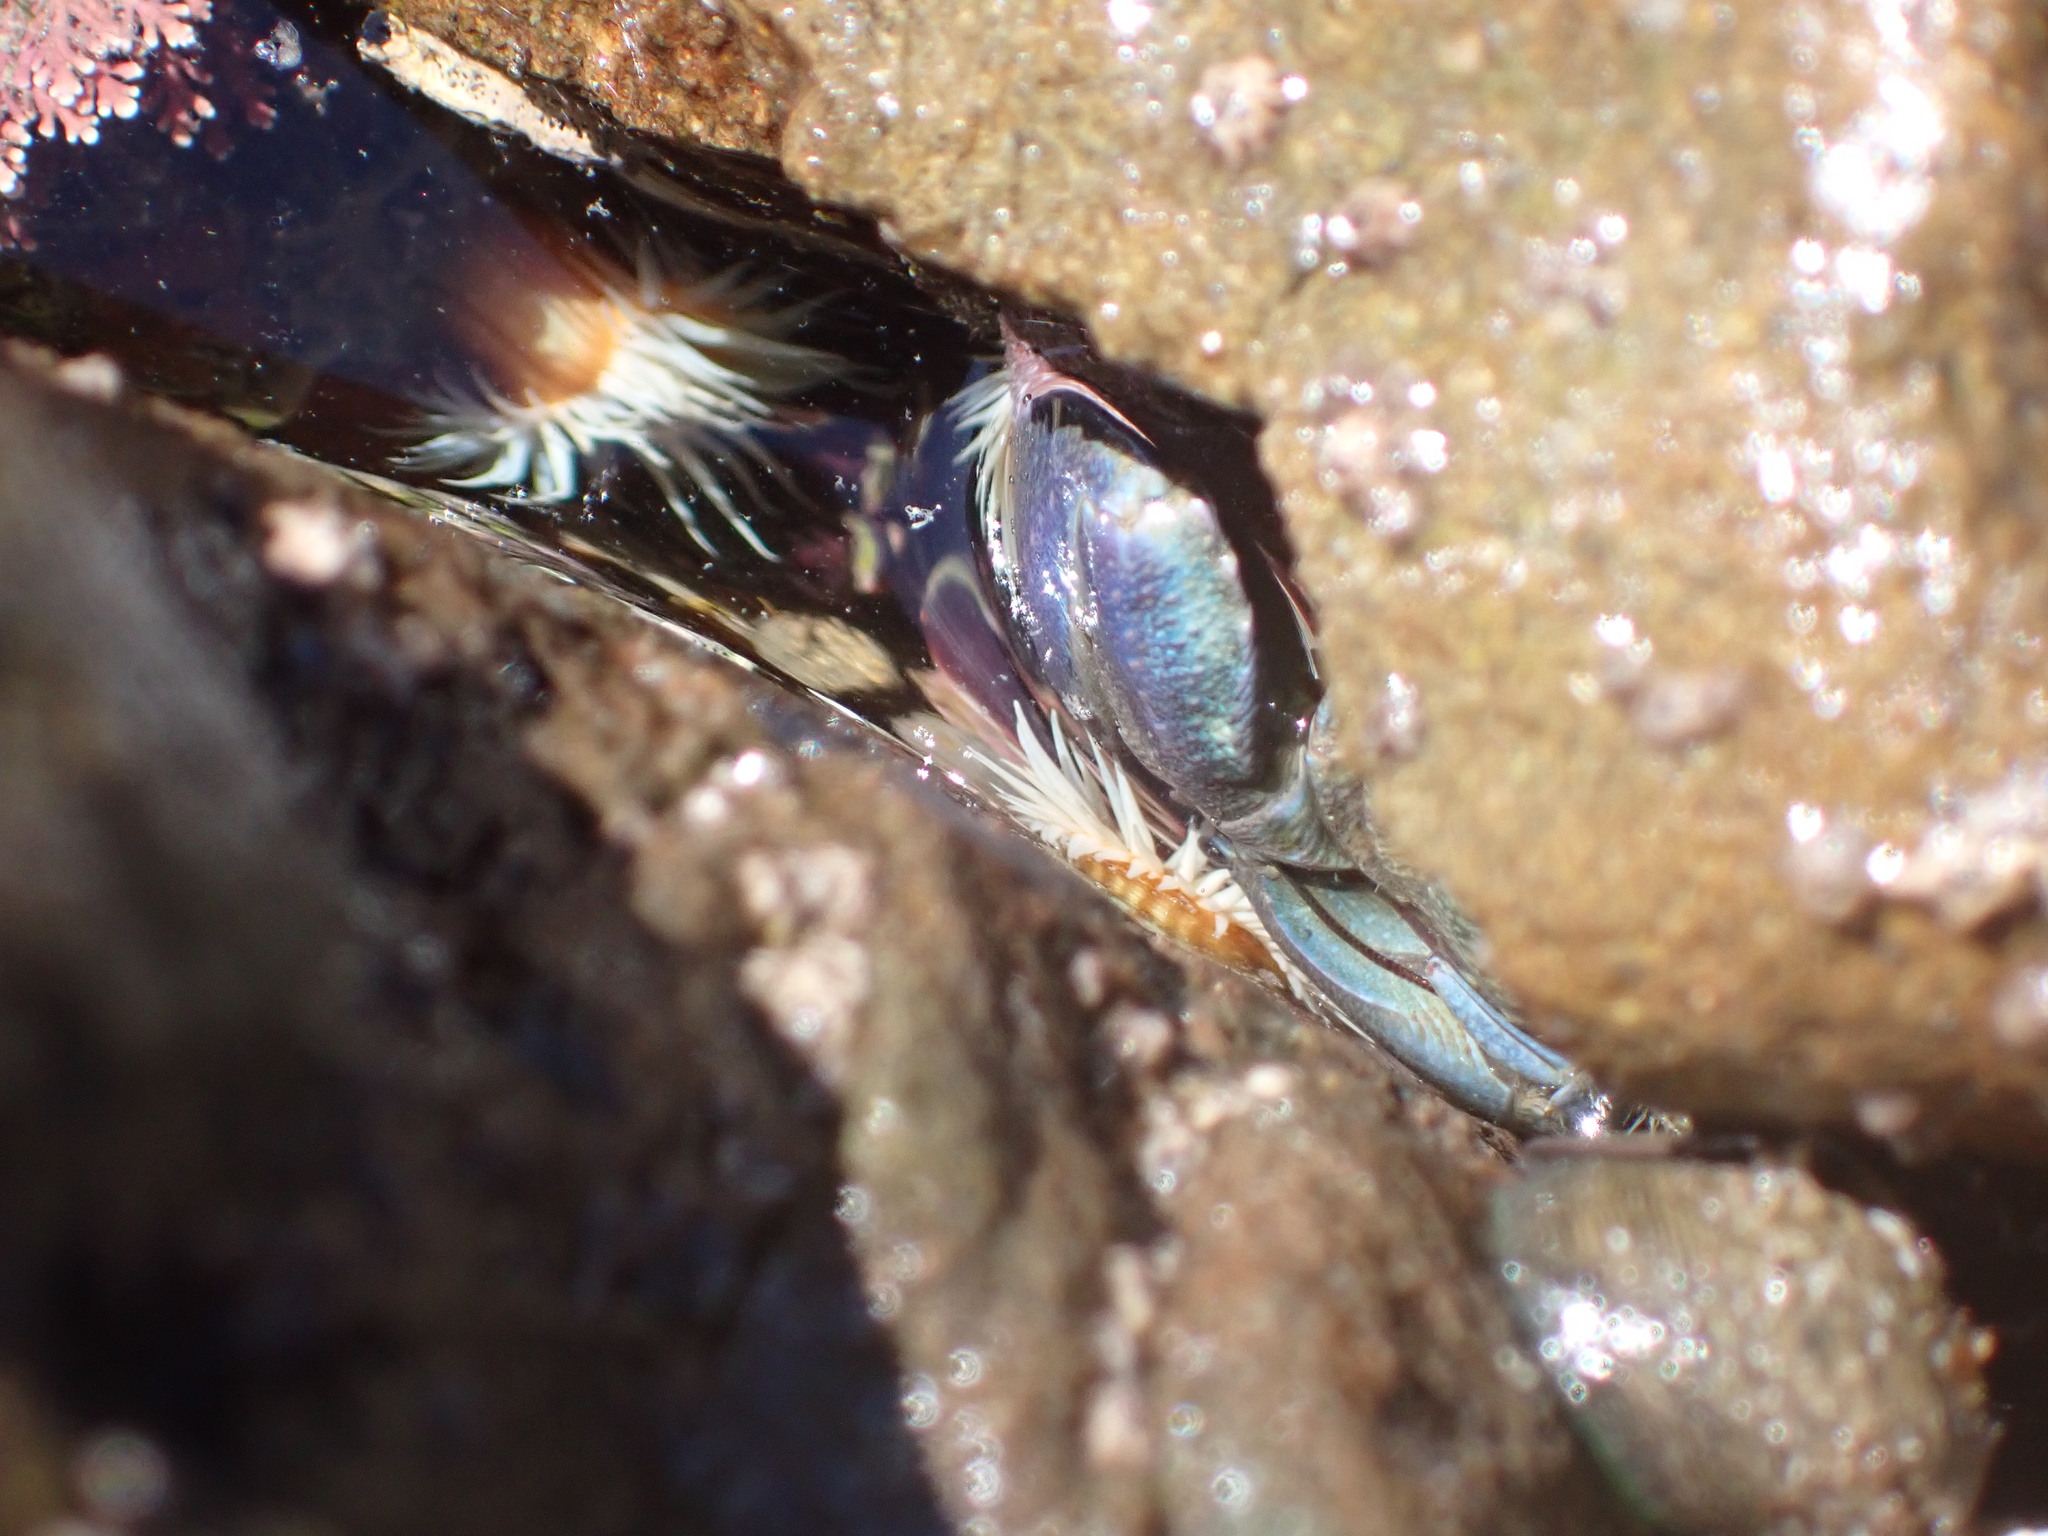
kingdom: Animalia
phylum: Arthropoda
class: Malacostraca
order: Decapoda
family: Porcellanidae
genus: Petrolisthes
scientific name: Petrolisthes elongatus
